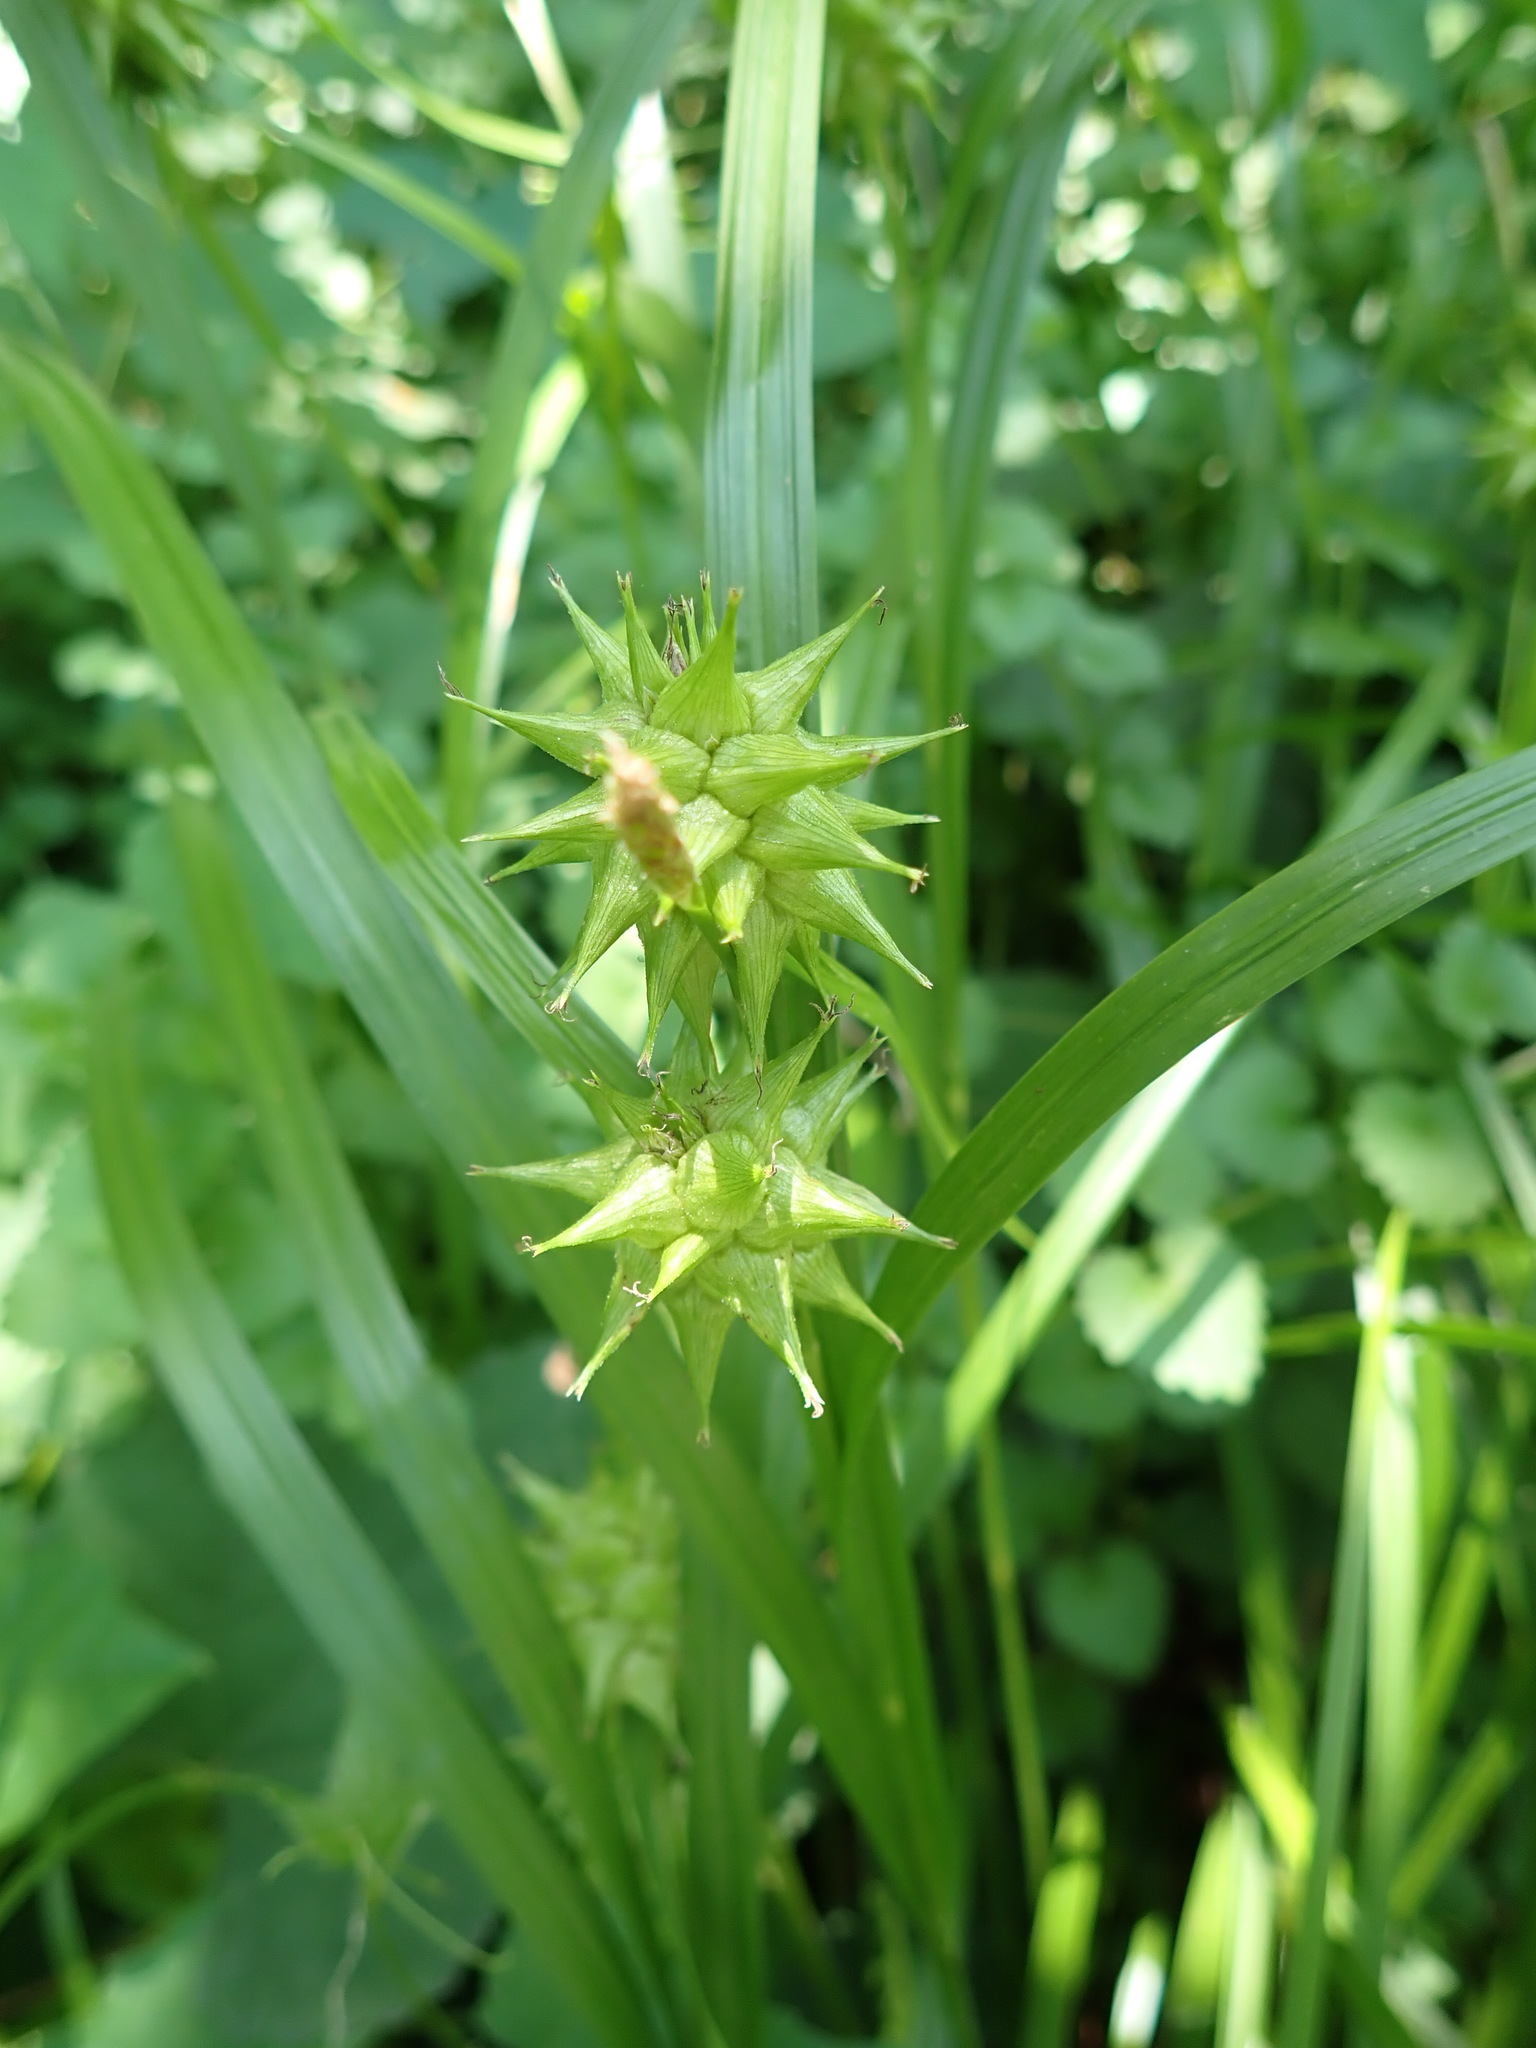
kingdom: Plantae
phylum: Tracheophyta
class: Liliopsida
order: Poales
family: Cyperaceae
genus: Carex
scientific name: Carex grayi
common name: Asa gray's sedge
